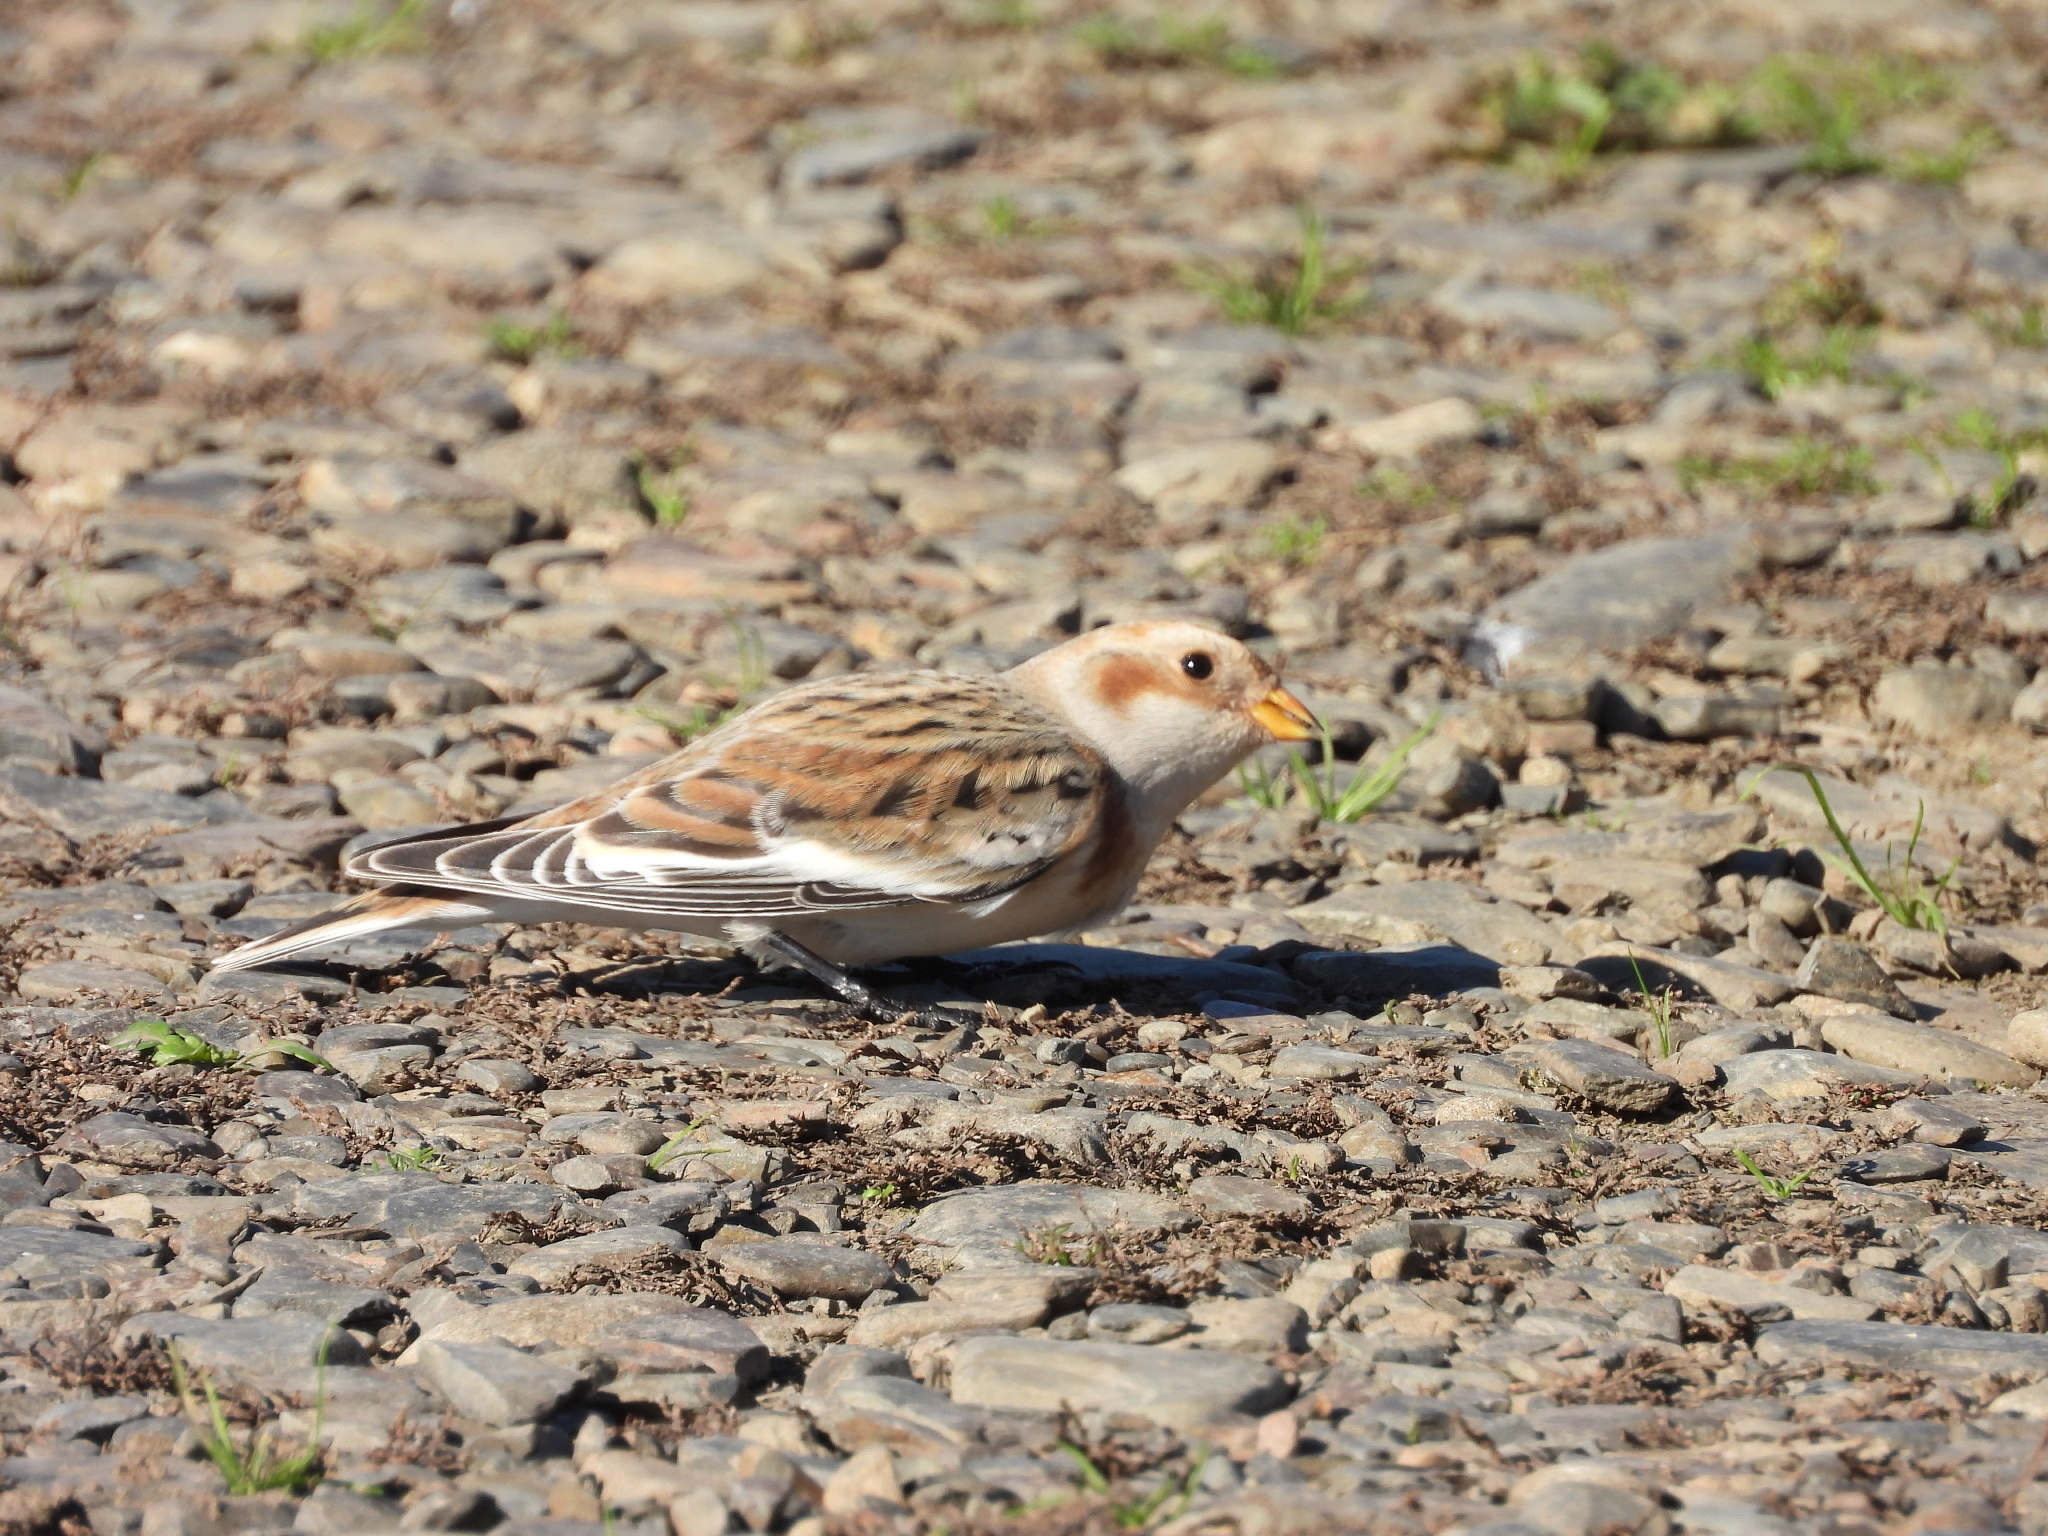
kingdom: Animalia
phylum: Chordata
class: Aves
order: Passeriformes
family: Calcariidae
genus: Plectrophenax
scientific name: Plectrophenax nivalis
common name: Snow bunting
